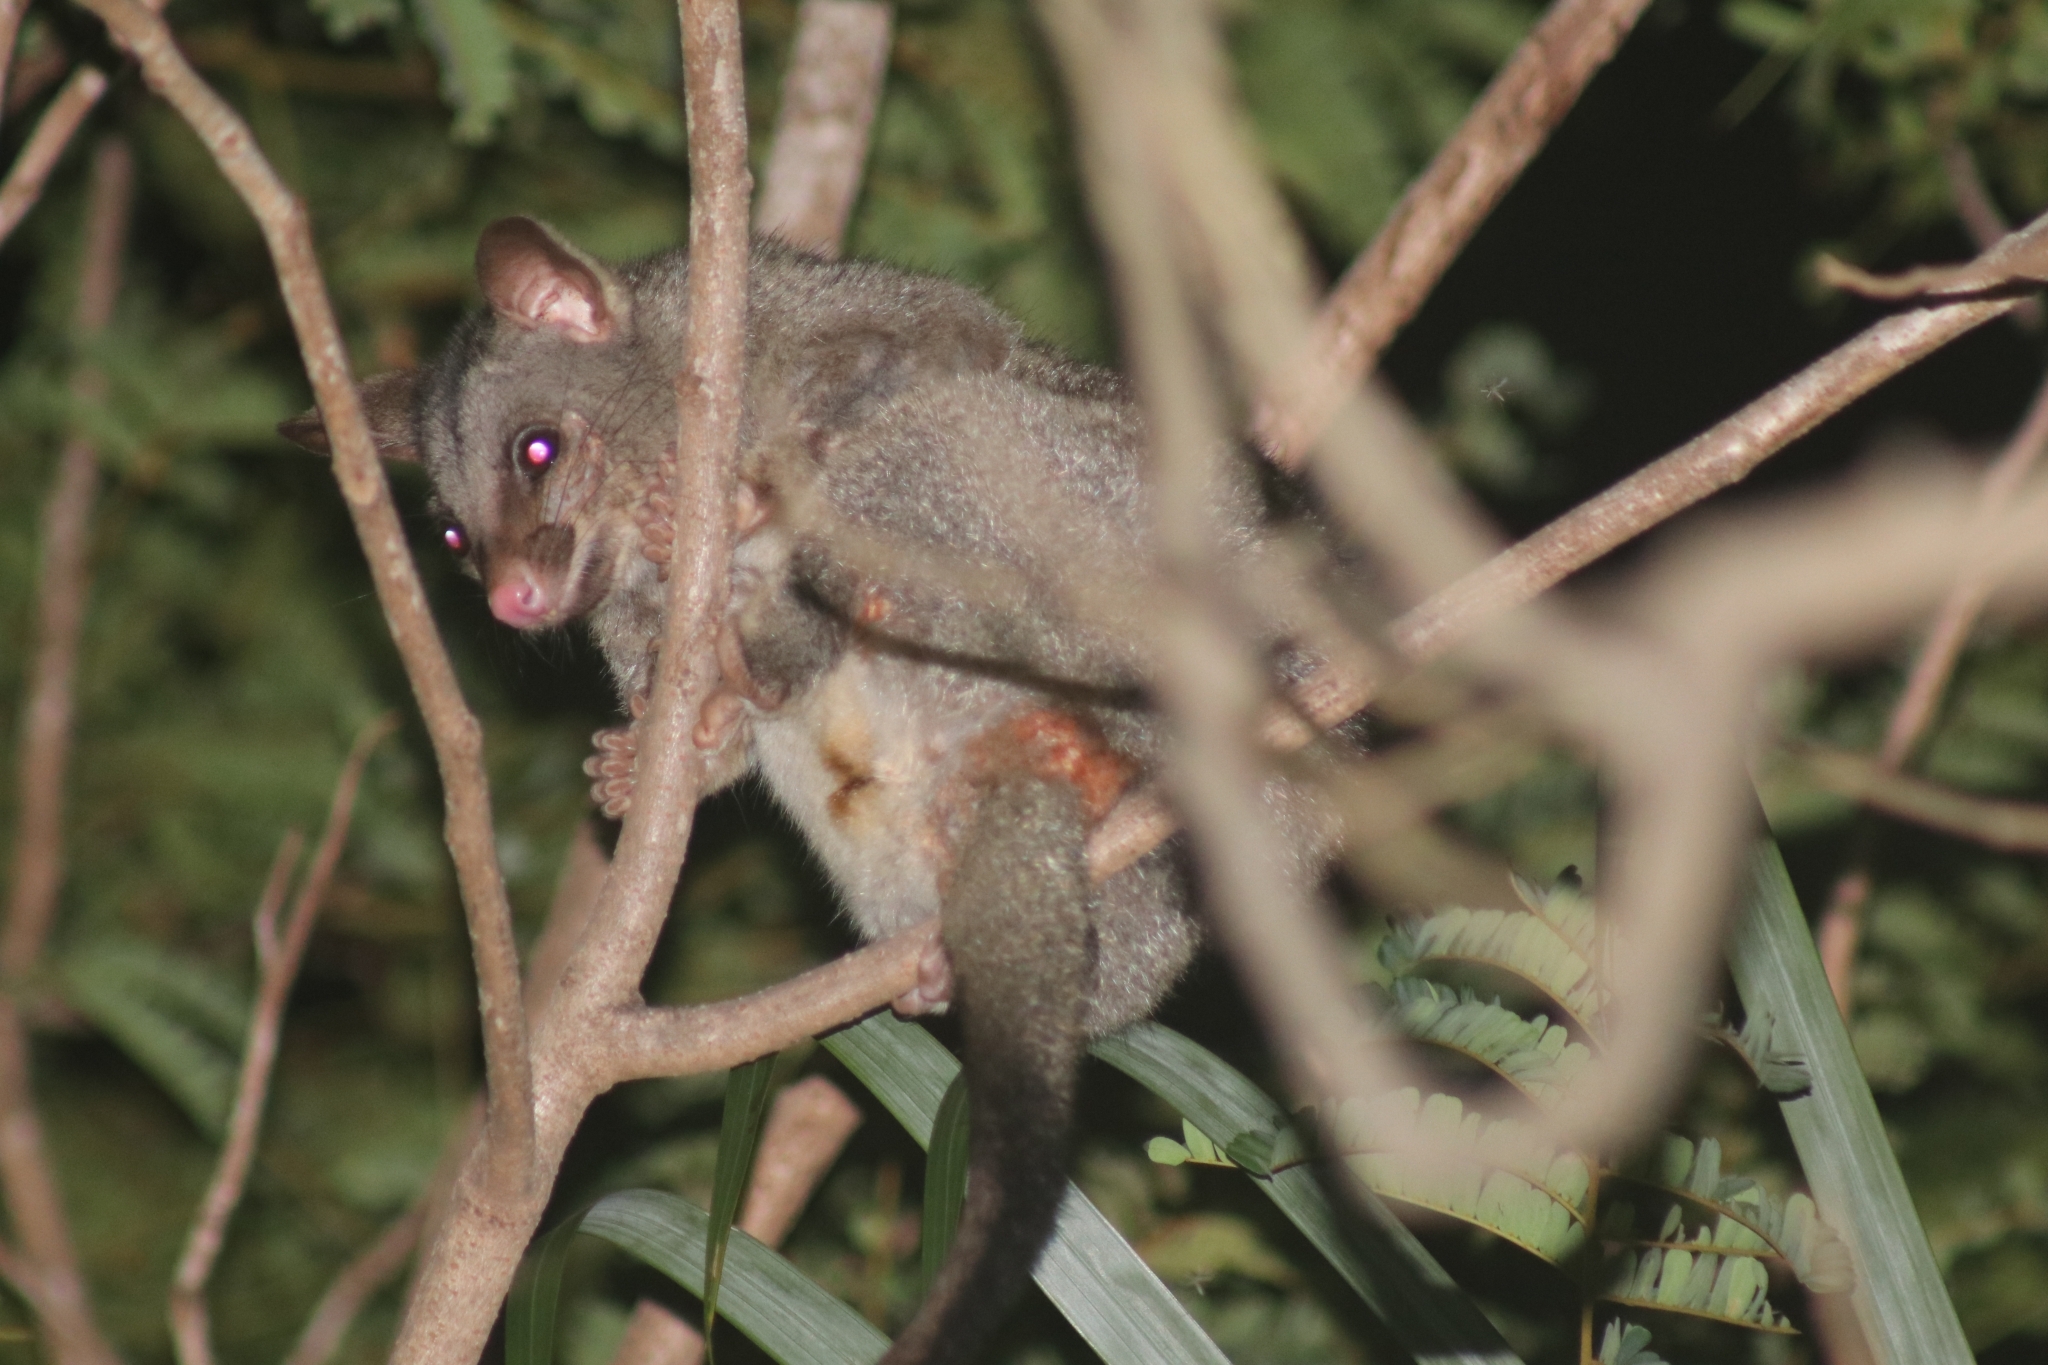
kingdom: Animalia
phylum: Chordata
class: Mammalia
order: Diprotodontia
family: Phalangeridae
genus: Trichosurus
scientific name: Trichosurus vulpecula
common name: Common brushtail
